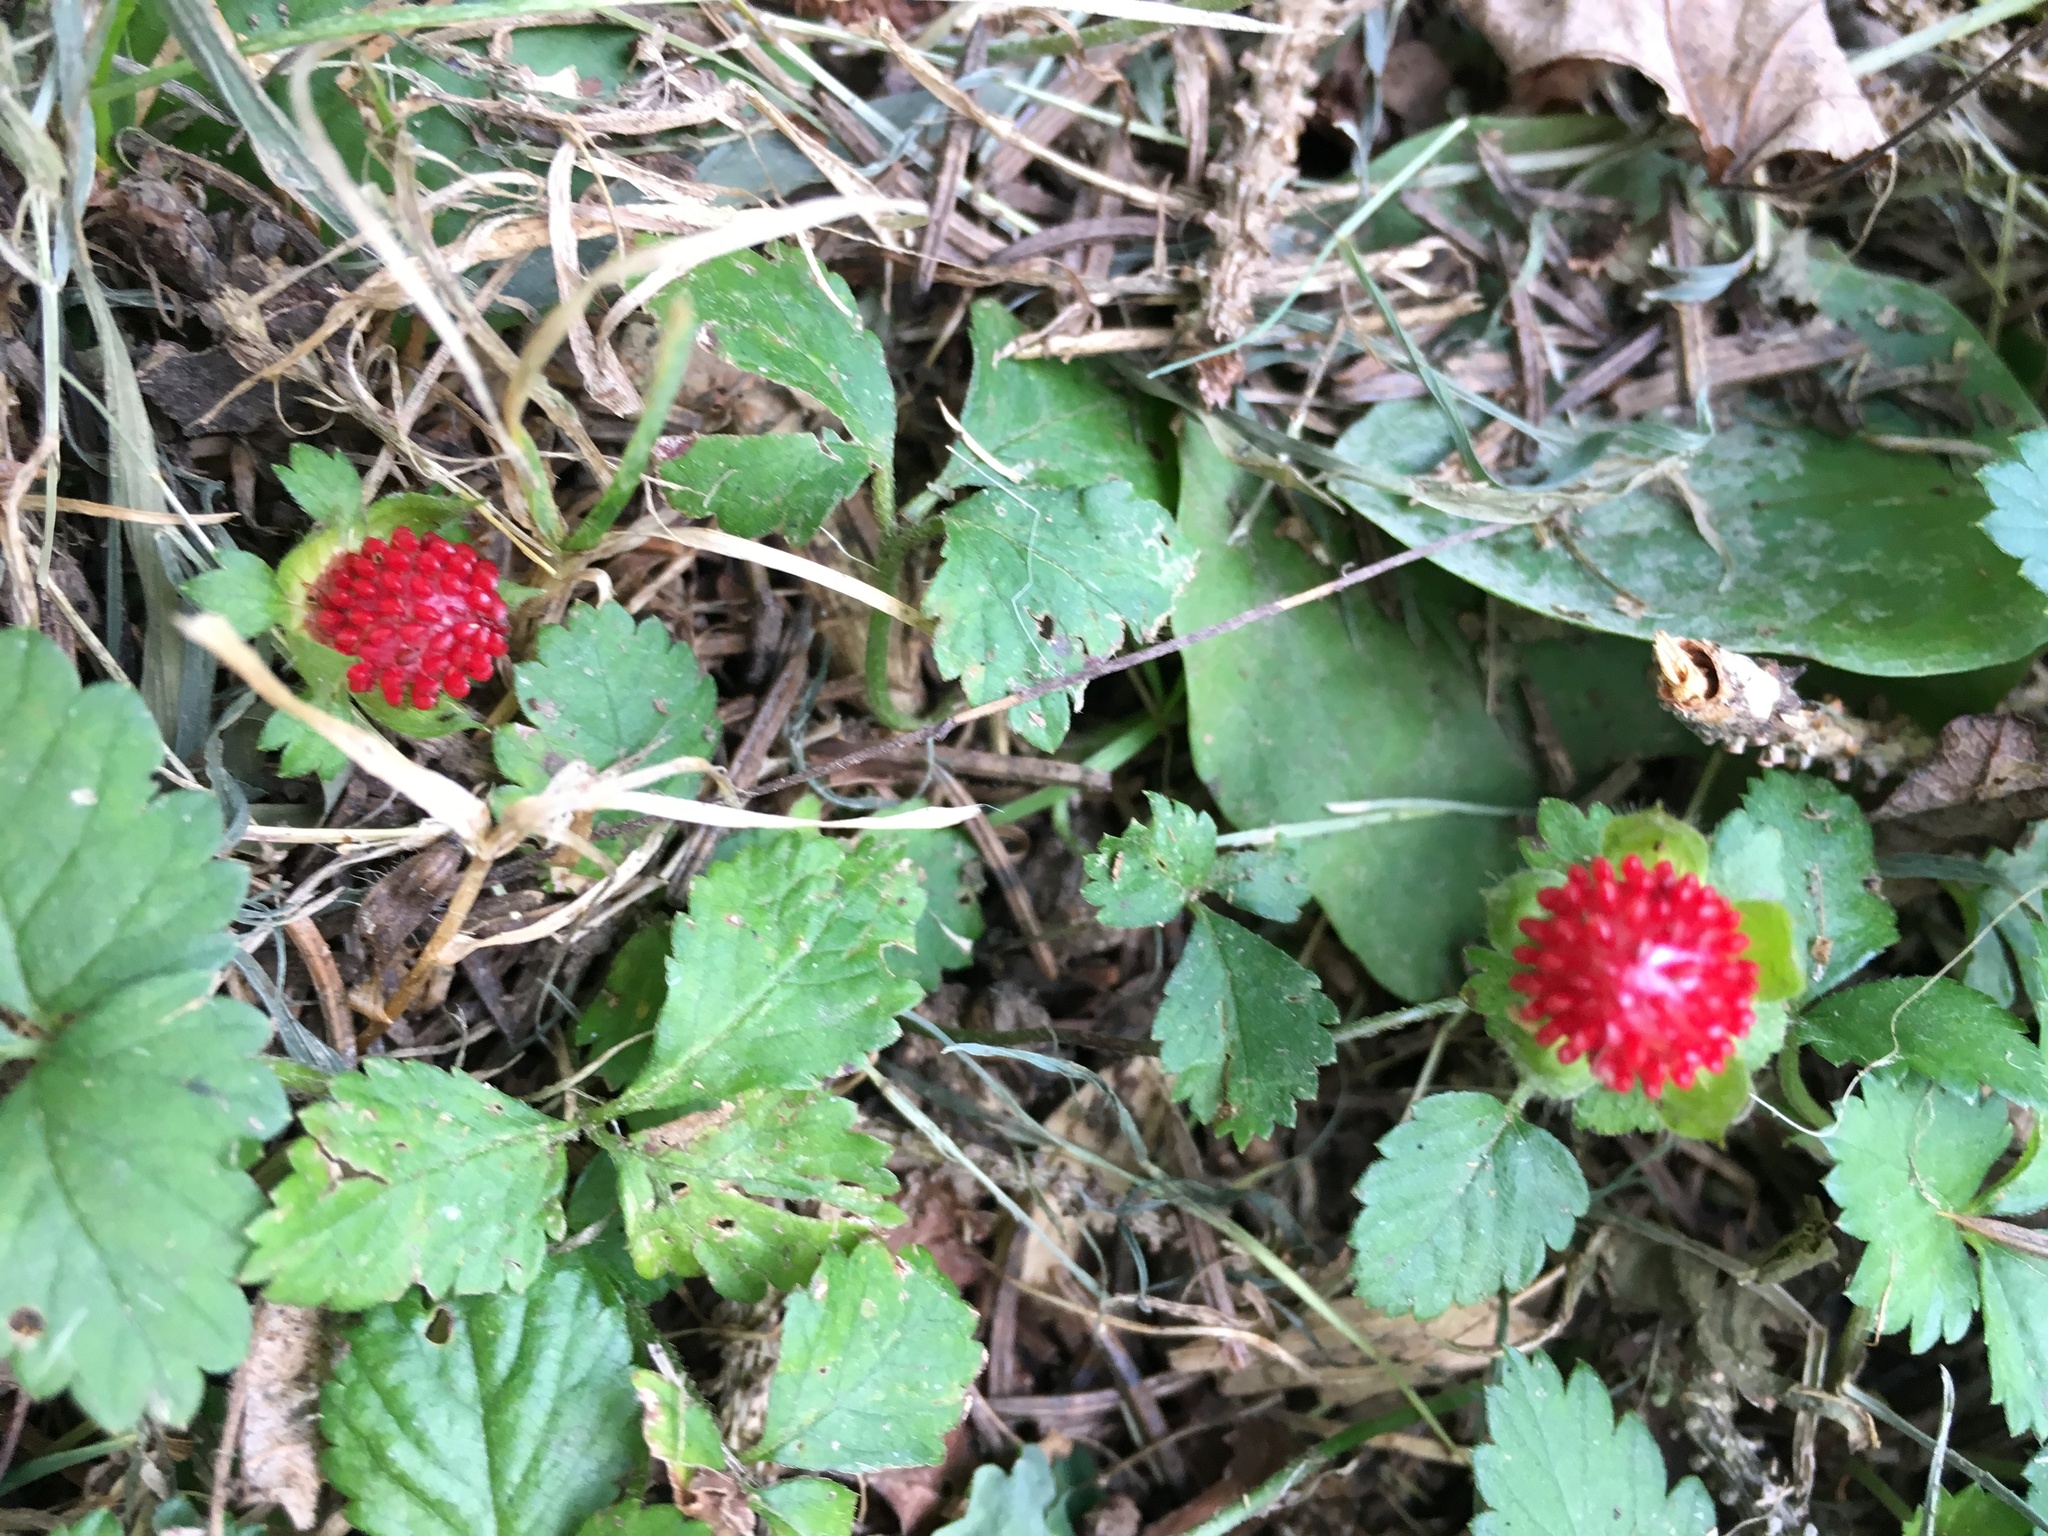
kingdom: Plantae
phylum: Tracheophyta
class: Magnoliopsida
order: Rosales
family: Rosaceae
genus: Potentilla
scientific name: Potentilla indica
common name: Yellow-flowered strawberry
